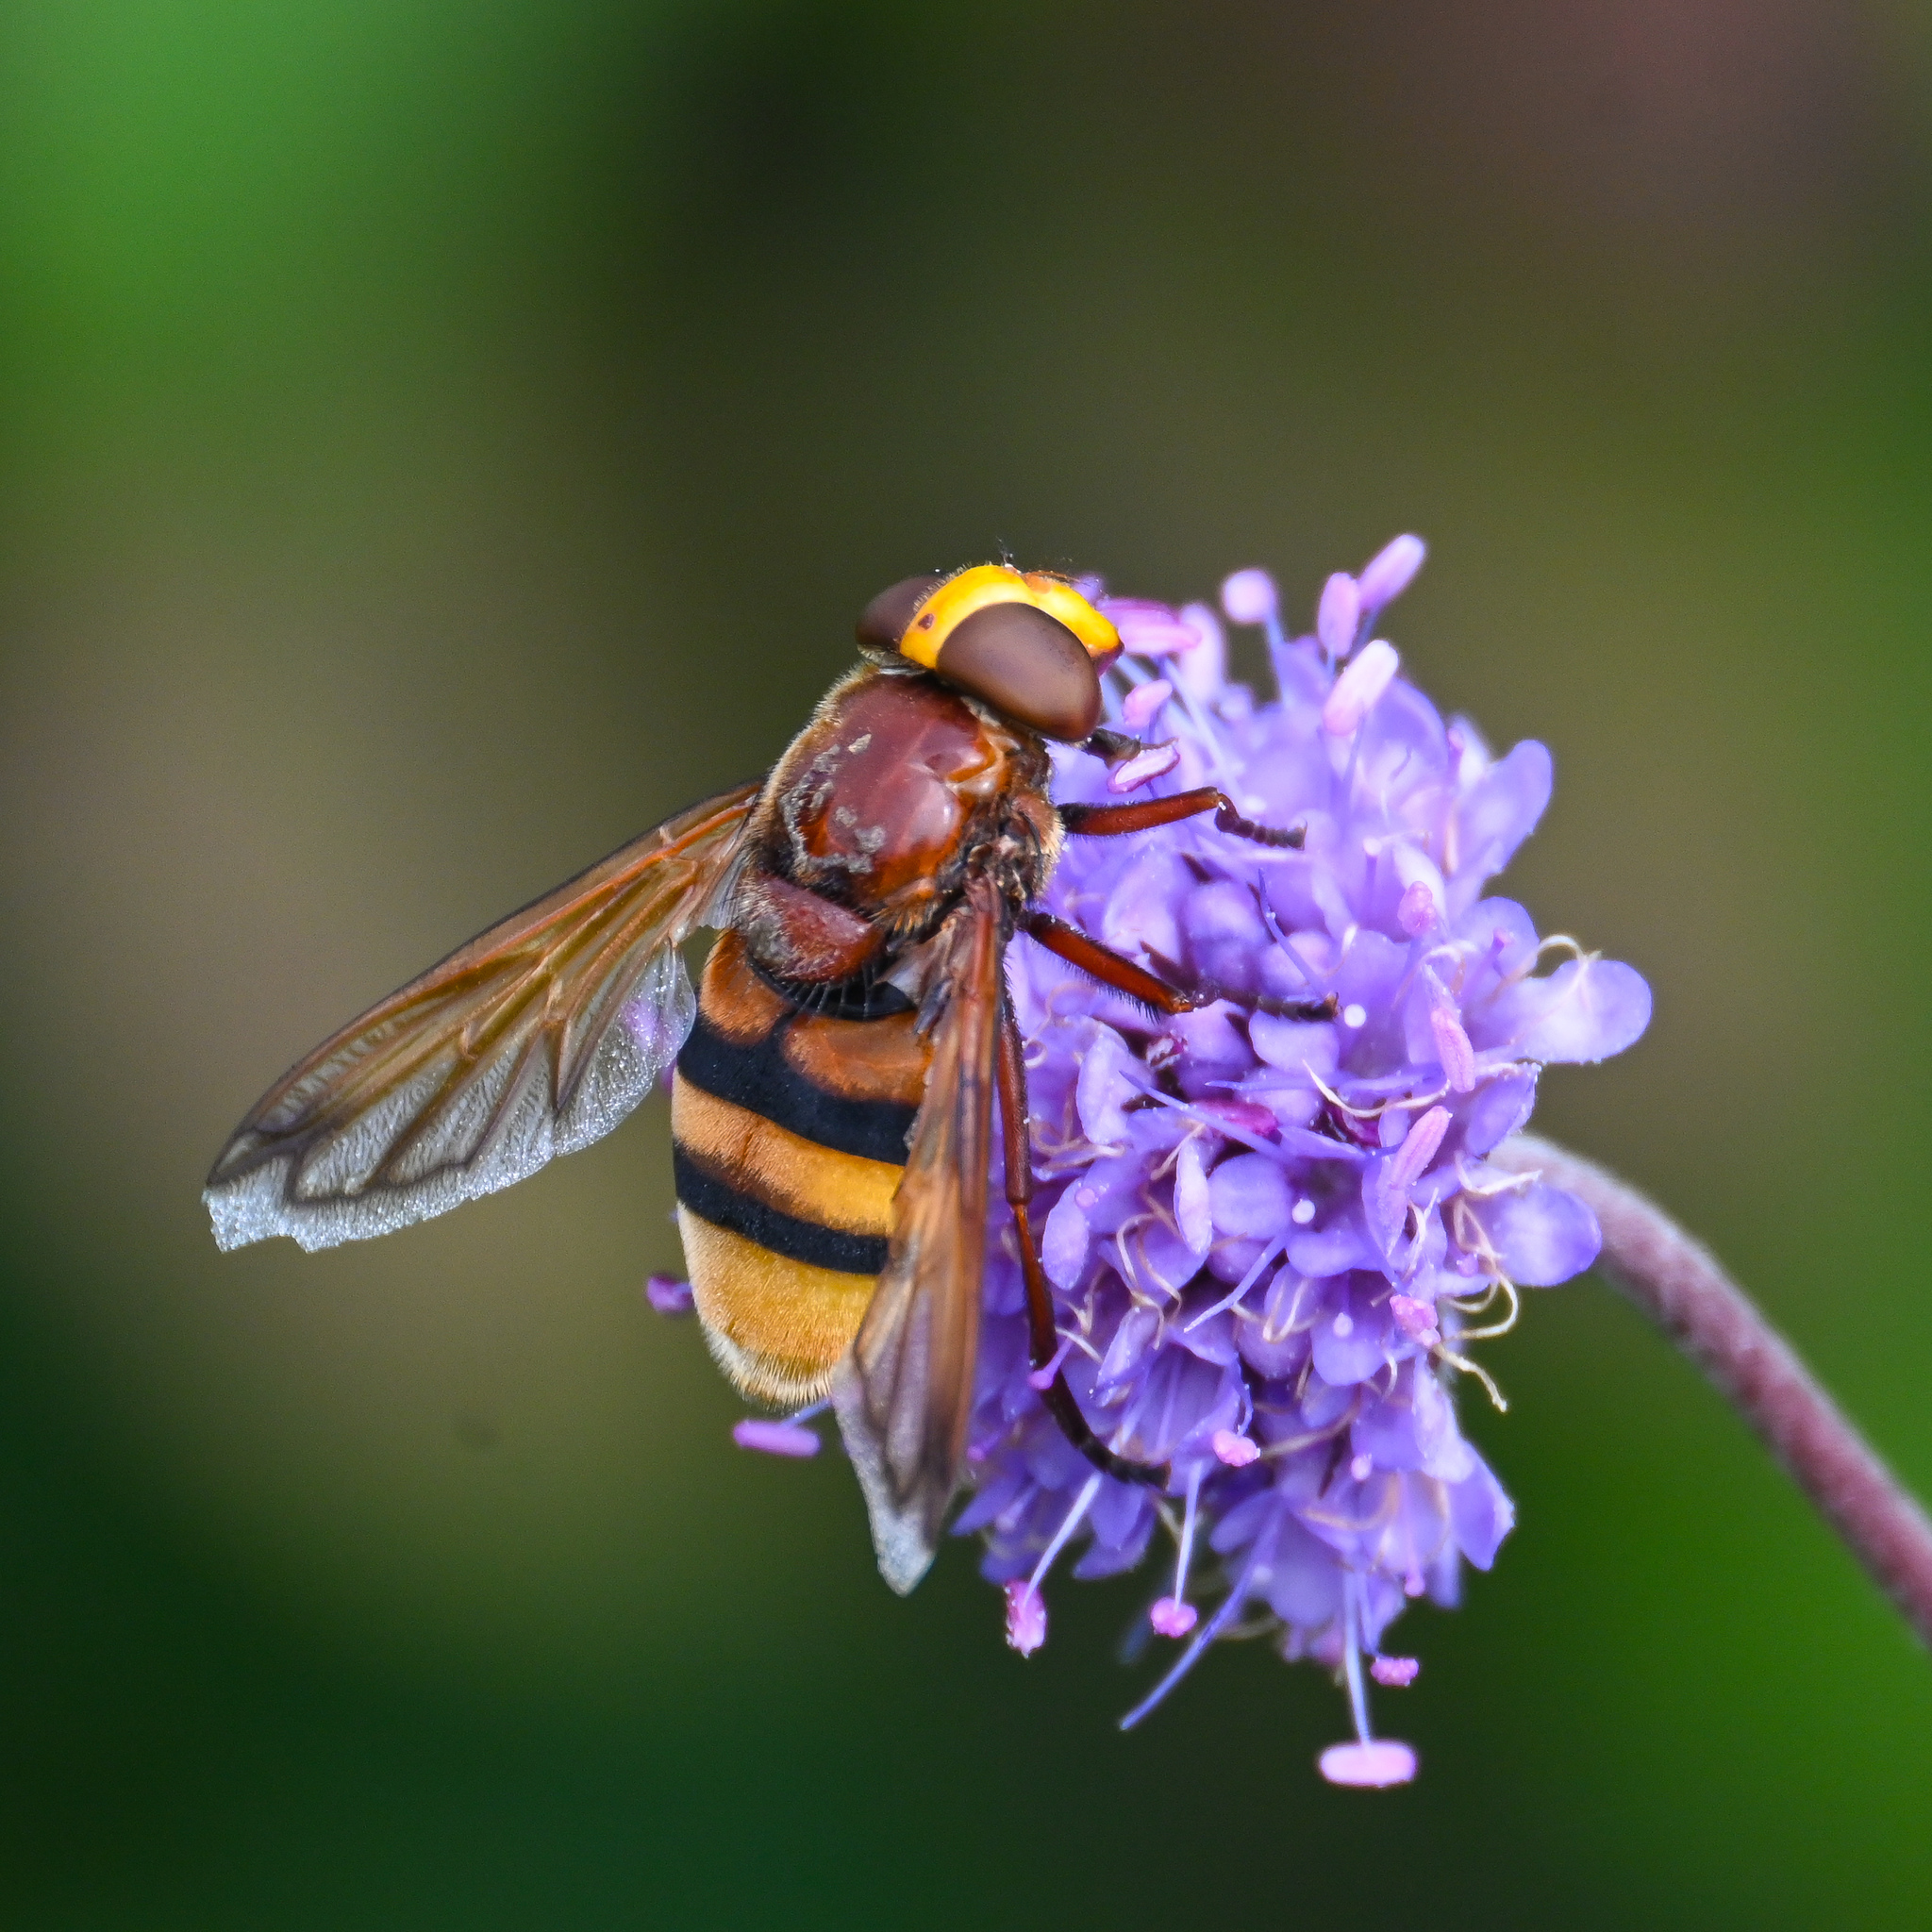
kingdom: Animalia
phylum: Arthropoda
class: Insecta
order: Diptera
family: Syrphidae
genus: Volucella
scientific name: Volucella zonaria
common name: Hornet hoverfly
